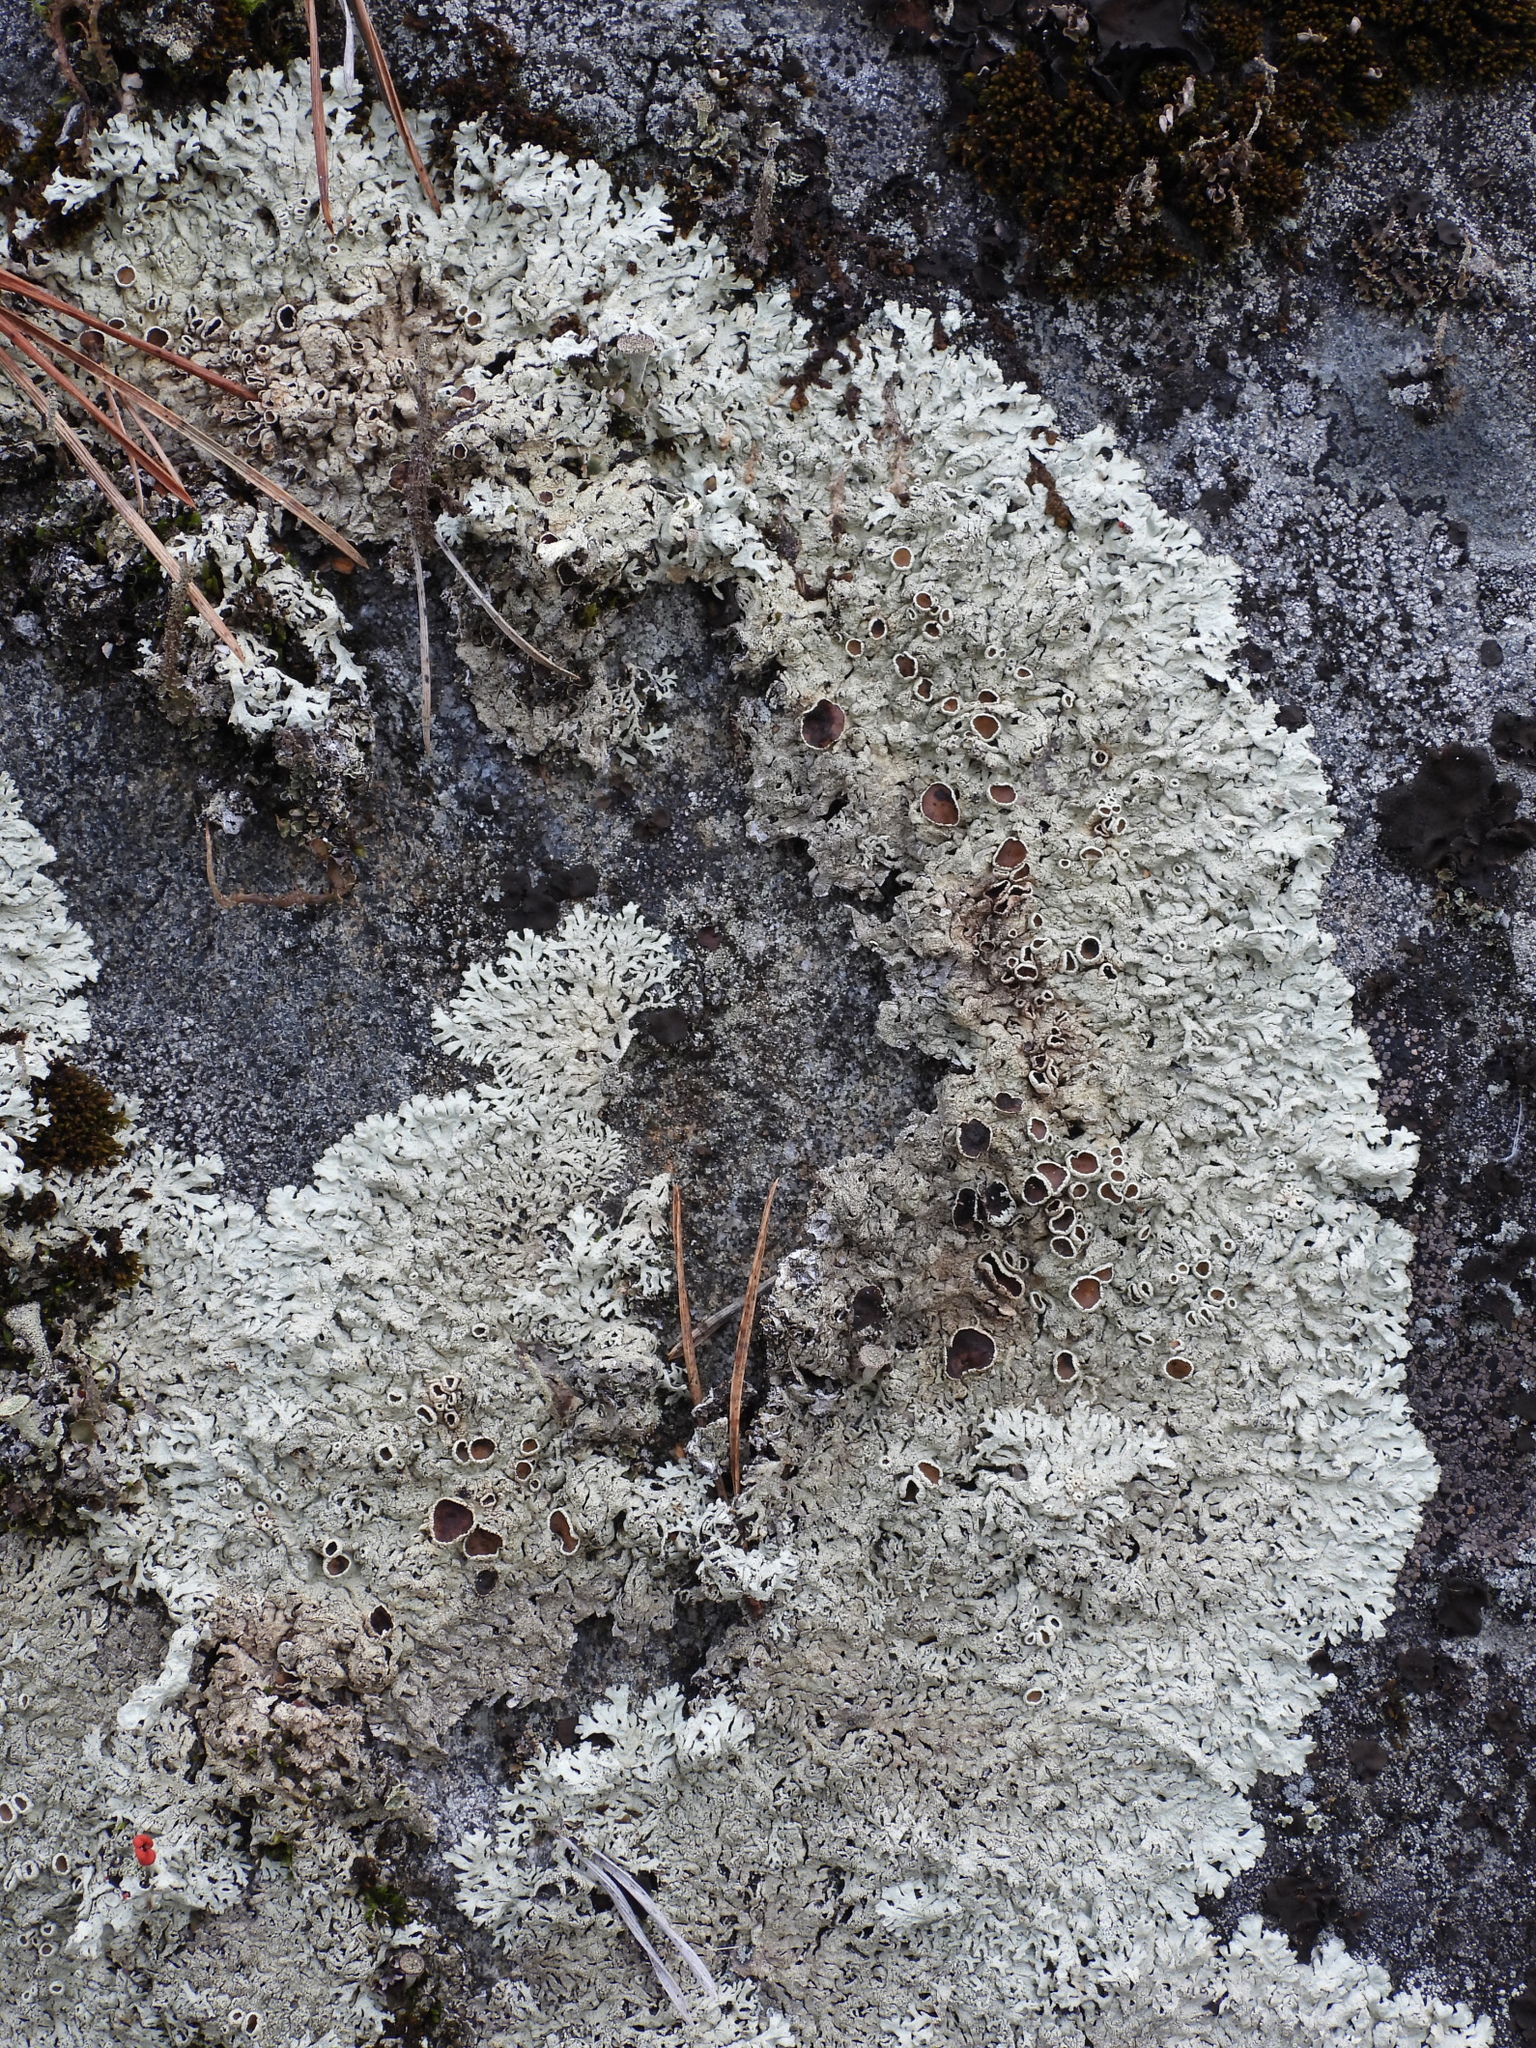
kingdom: Fungi
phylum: Ascomycota
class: Lecanoromycetes
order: Lecanorales
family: Parmeliaceae
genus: Arctoparmelia
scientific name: Arctoparmelia centrifuga
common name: Concentric ring lichen
